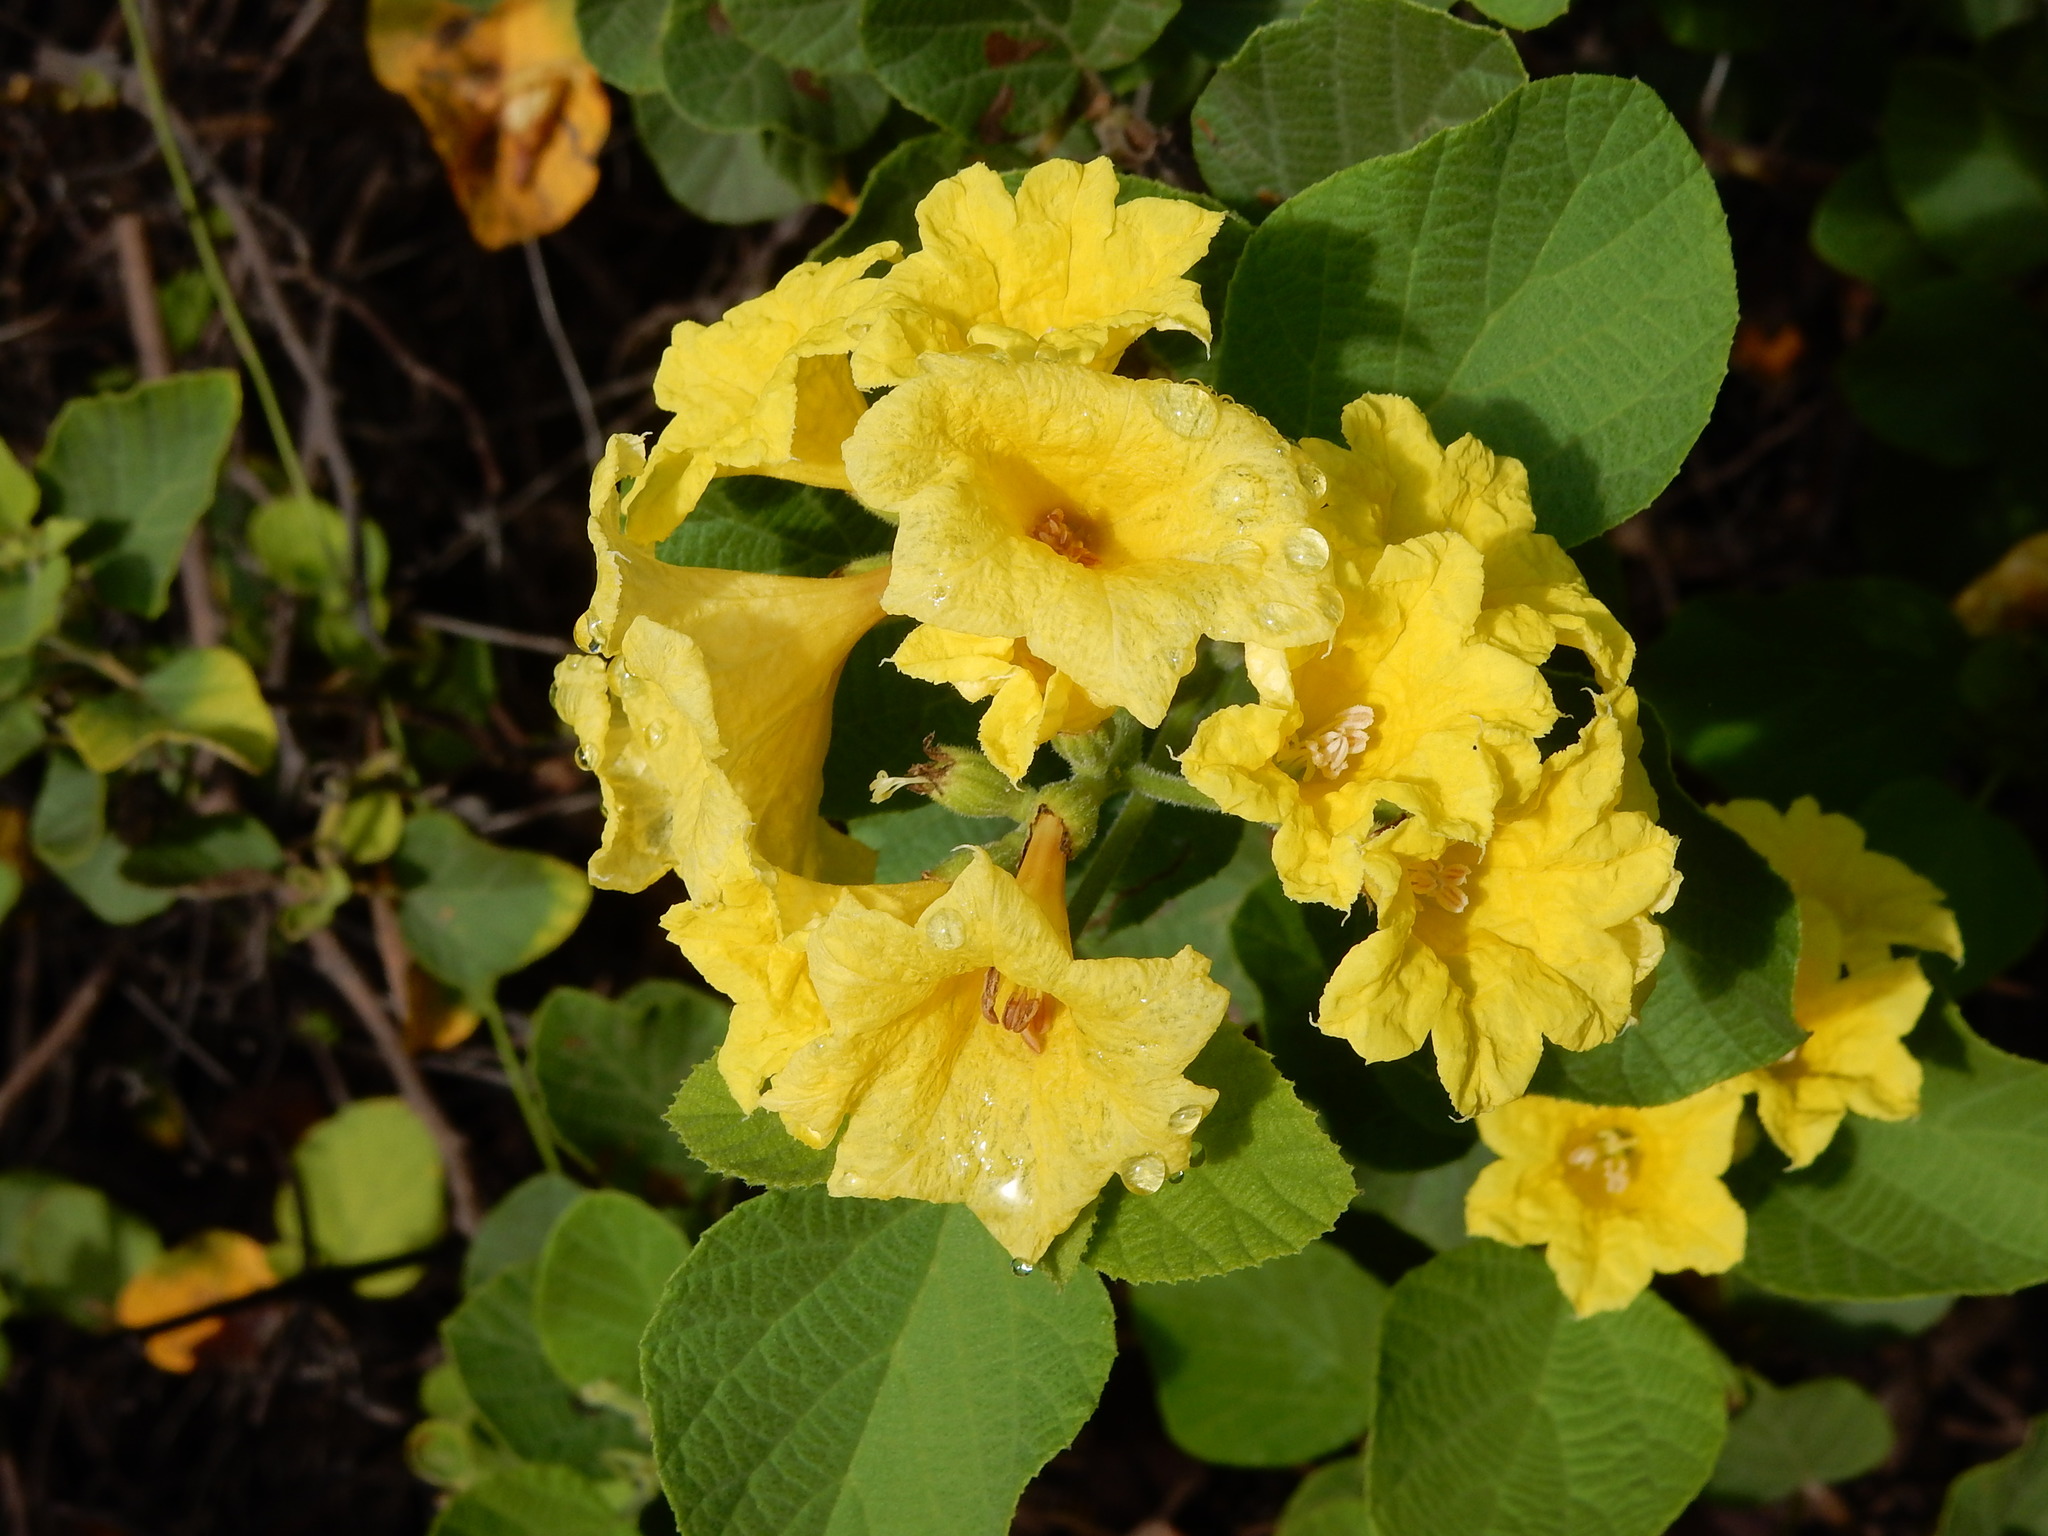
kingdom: Plantae
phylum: Tracheophyta
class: Magnoliopsida
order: Boraginales
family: Cordiaceae
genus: Cordia
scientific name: Cordia lutea
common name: Yellow geiger
